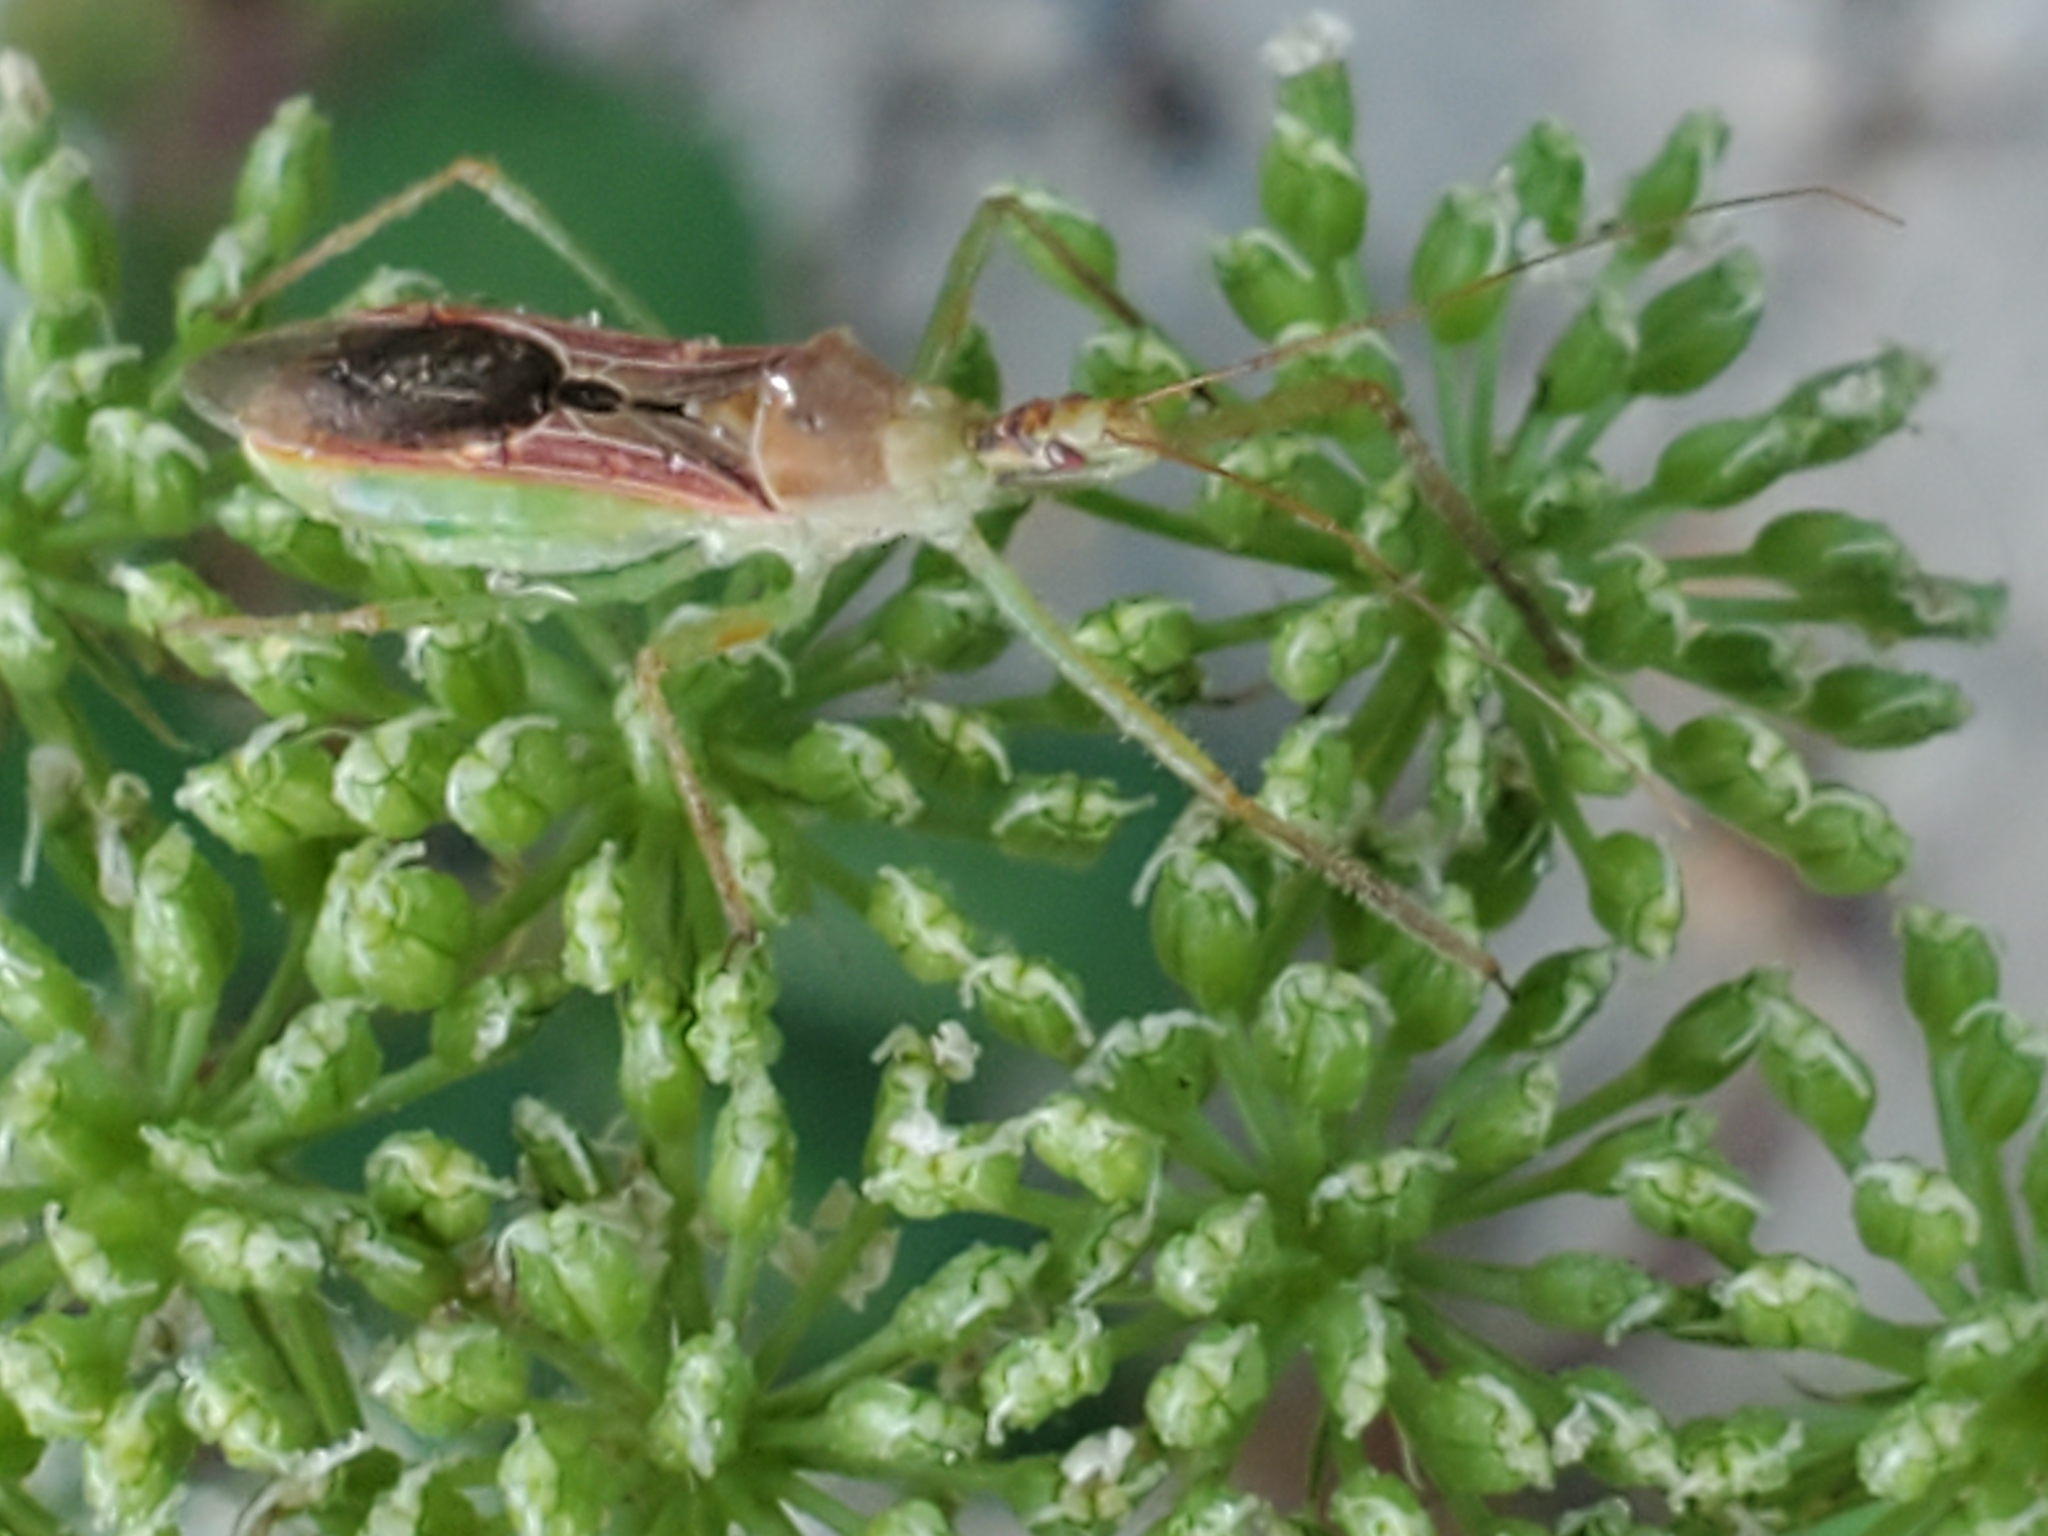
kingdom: Animalia
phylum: Arthropoda
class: Insecta
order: Hemiptera
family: Reduviidae
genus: Zelus
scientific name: Zelus renardii
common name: Assassin bug
